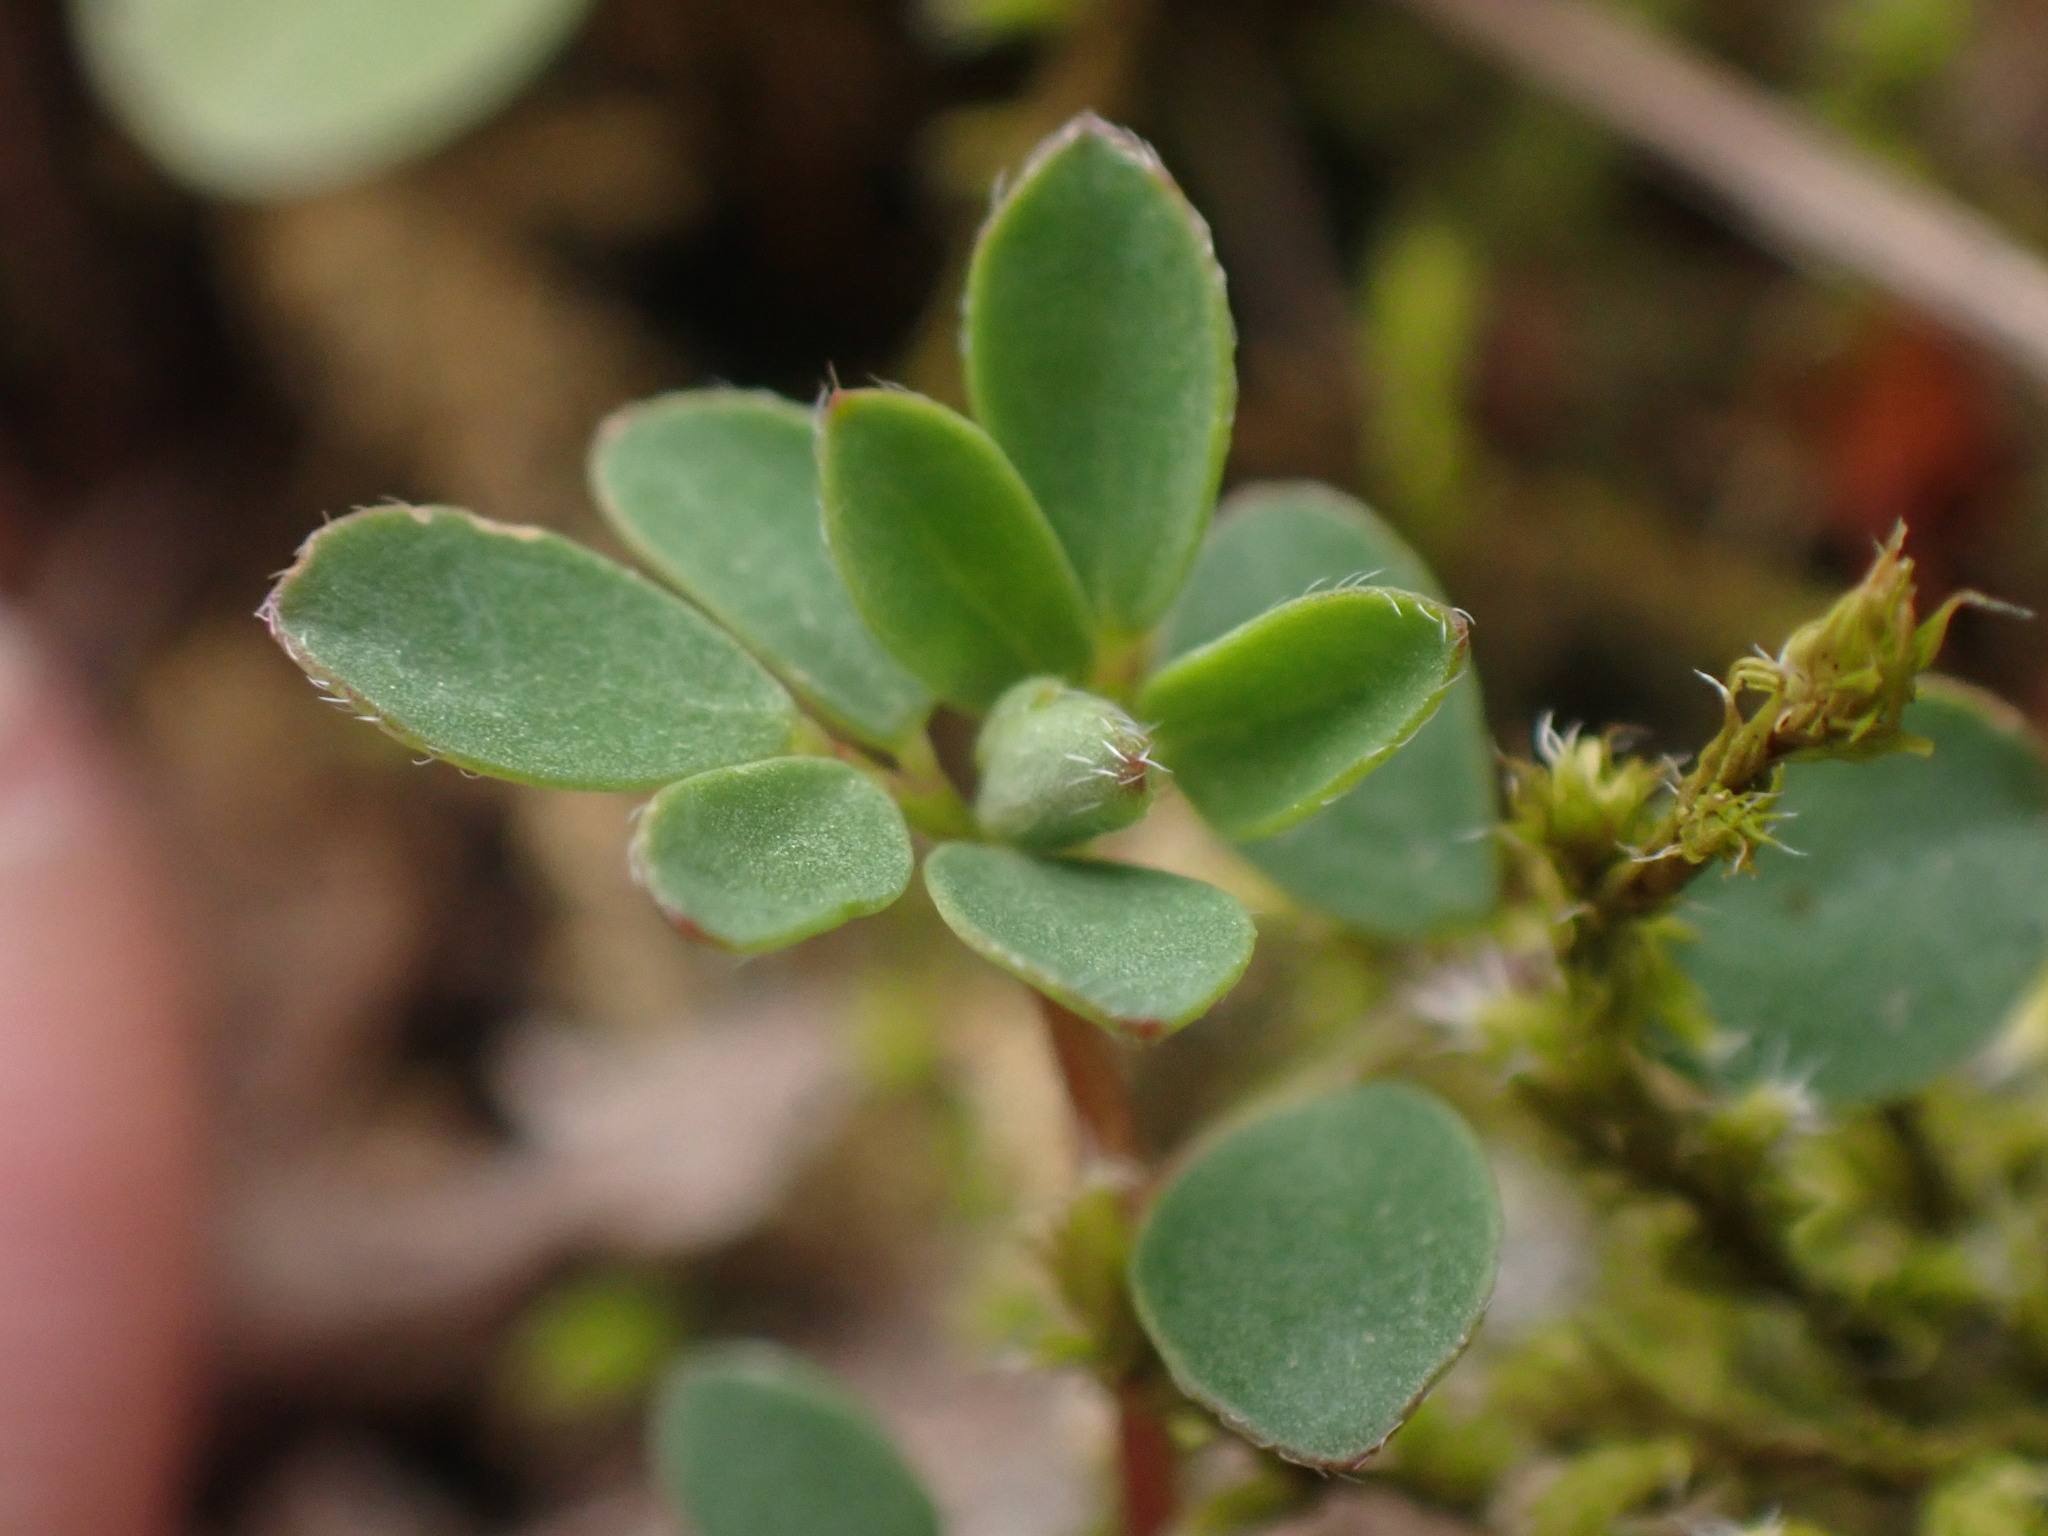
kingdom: Plantae
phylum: Tracheophyta
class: Magnoliopsida
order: Fabales
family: Fabaceae
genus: Acmispon
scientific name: Acmispon parviflorus
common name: Desert deer-vetch
